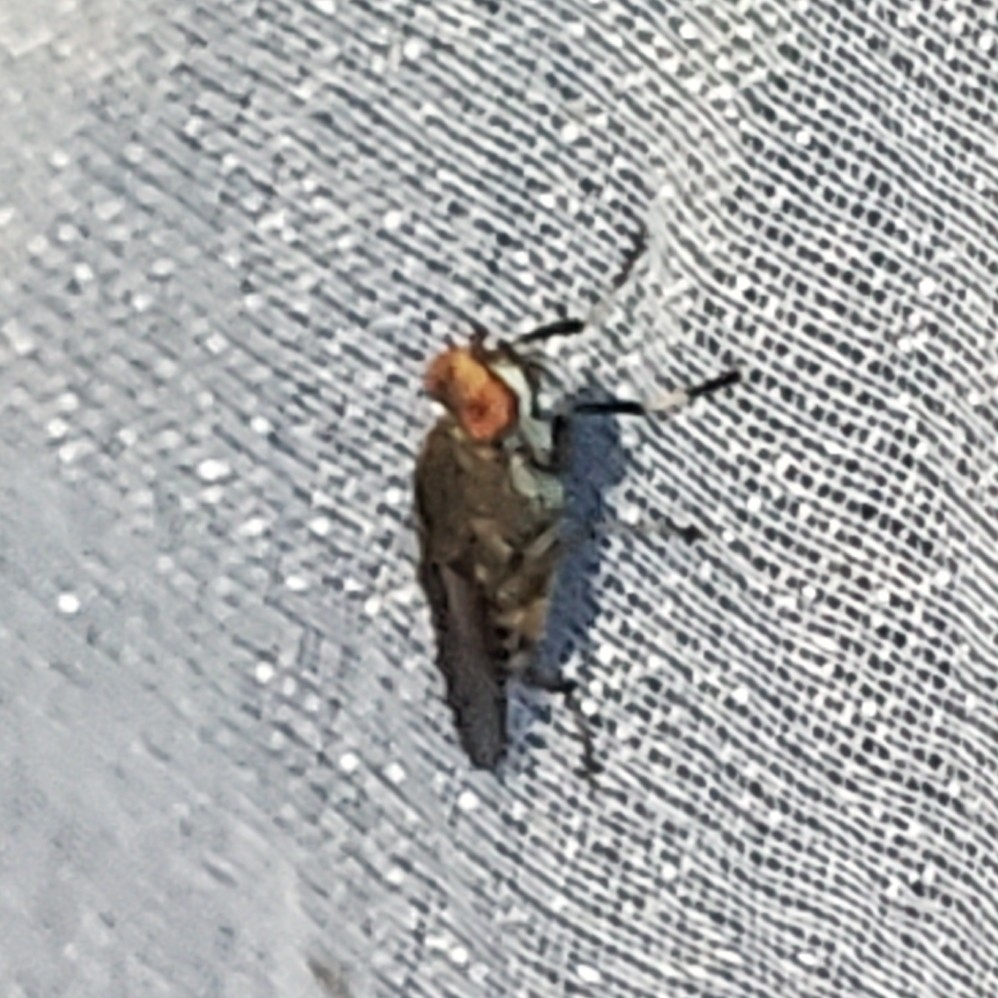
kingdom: Animalia
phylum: Arthropoda
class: Insecta
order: Diptera
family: Sciomyzidae
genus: Atrichomelina
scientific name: Atrichomelina pubera
